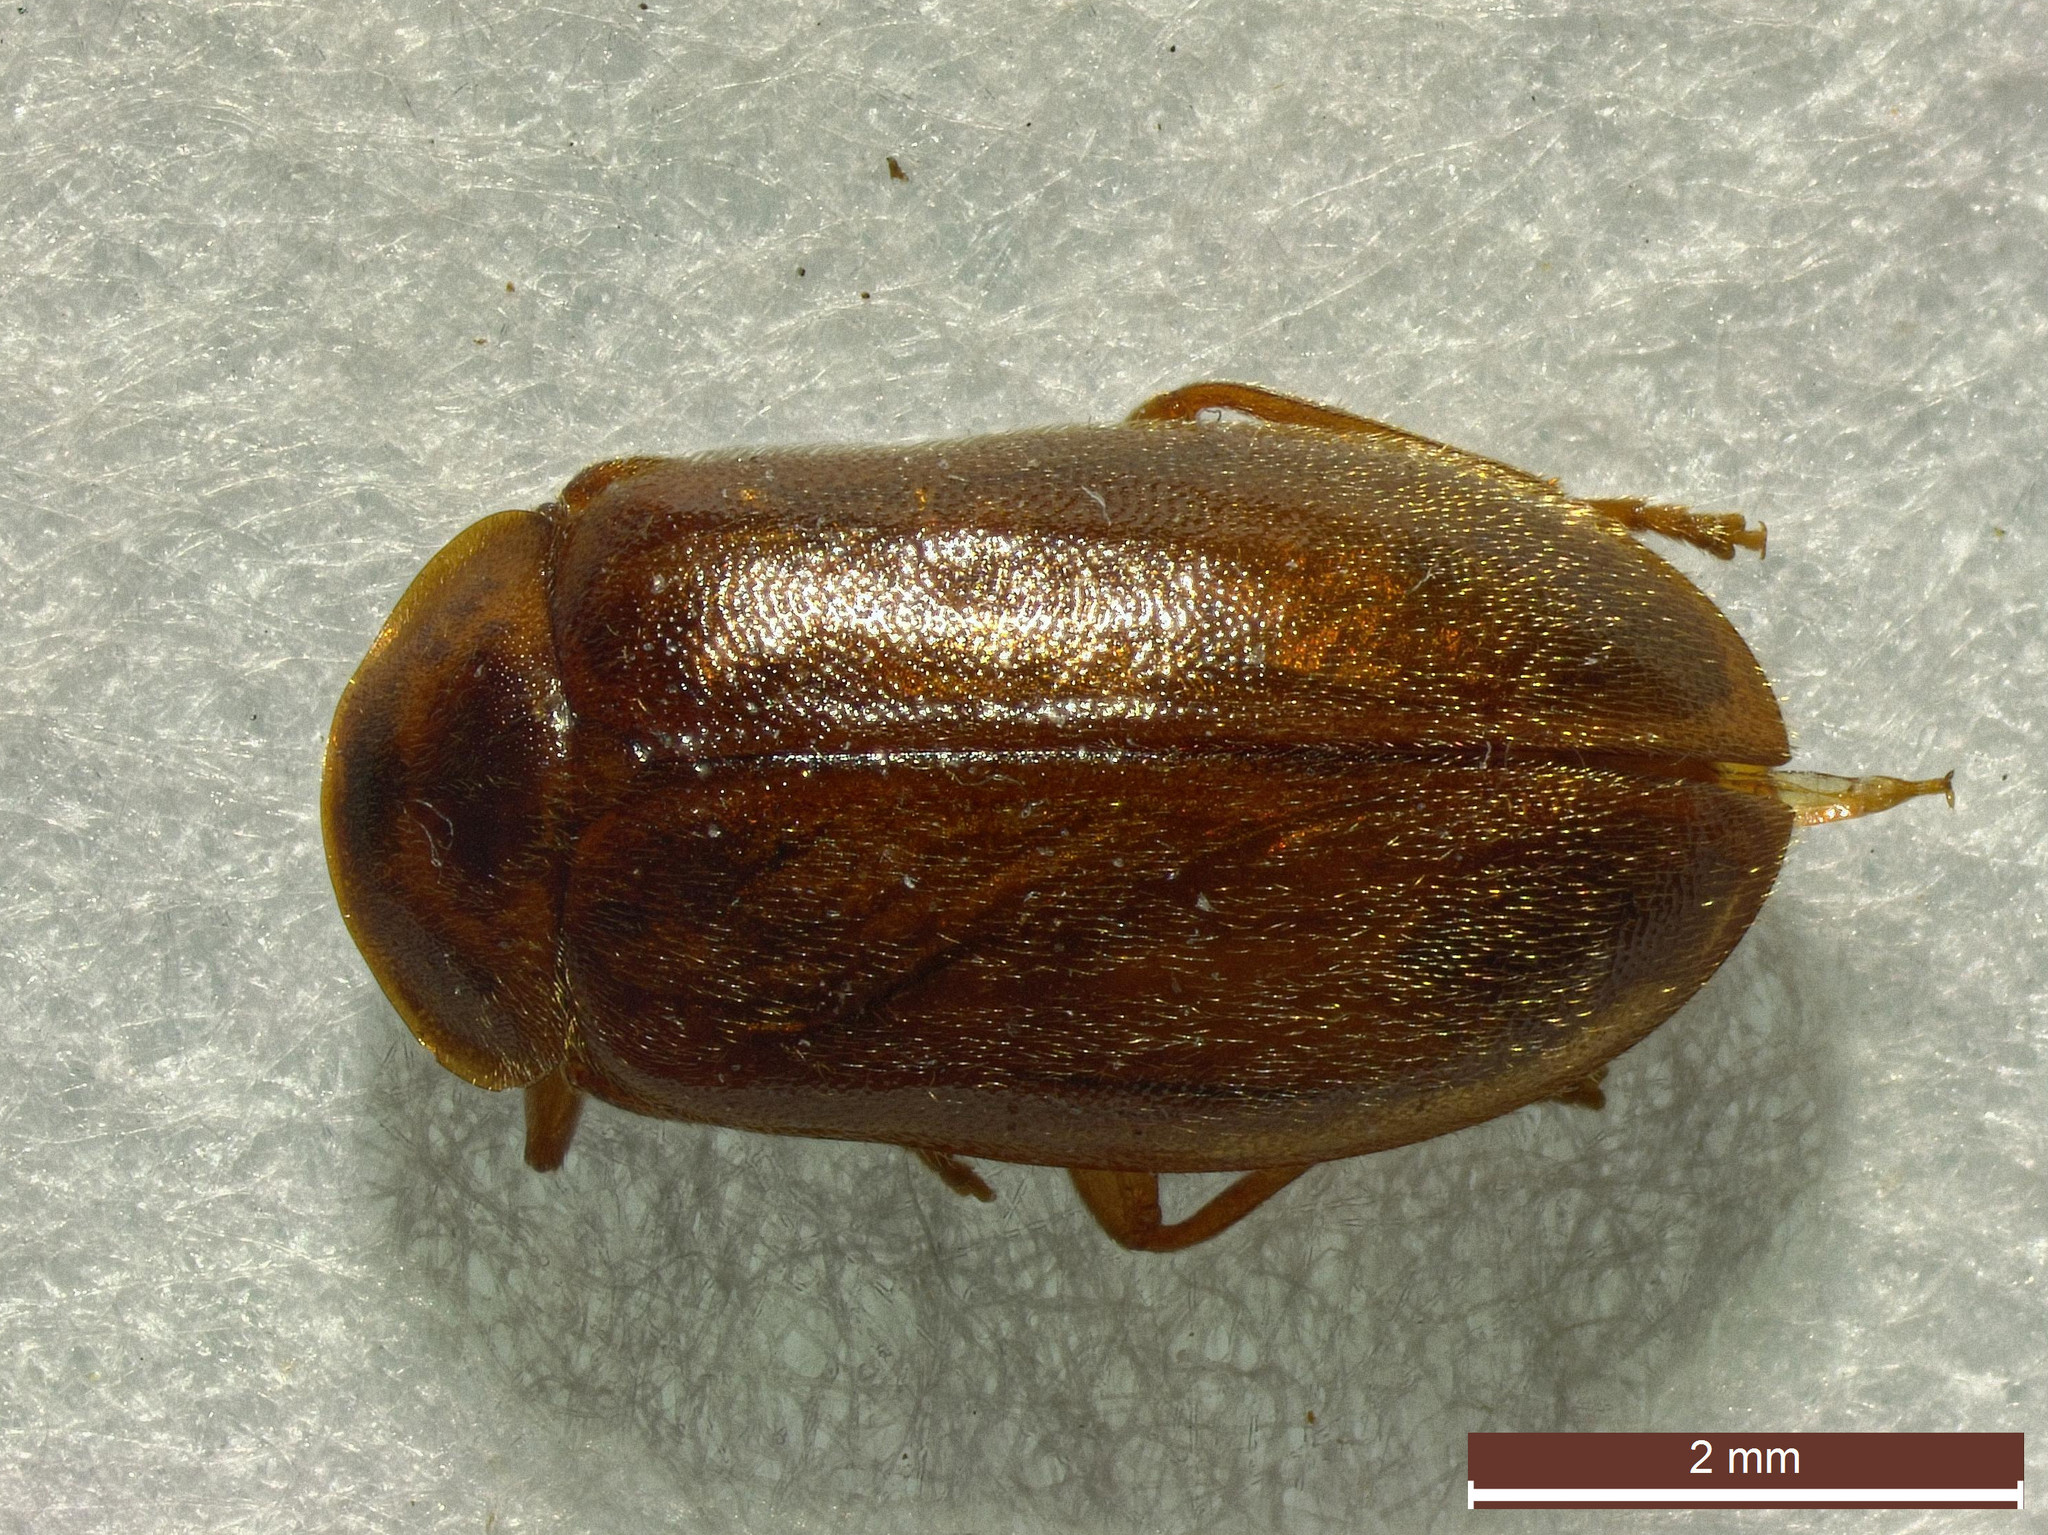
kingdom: Animalia
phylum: Arthropoda
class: Insecta
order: Coleoptera
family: Scirtidae
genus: Microcara
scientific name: Microcara testacea
